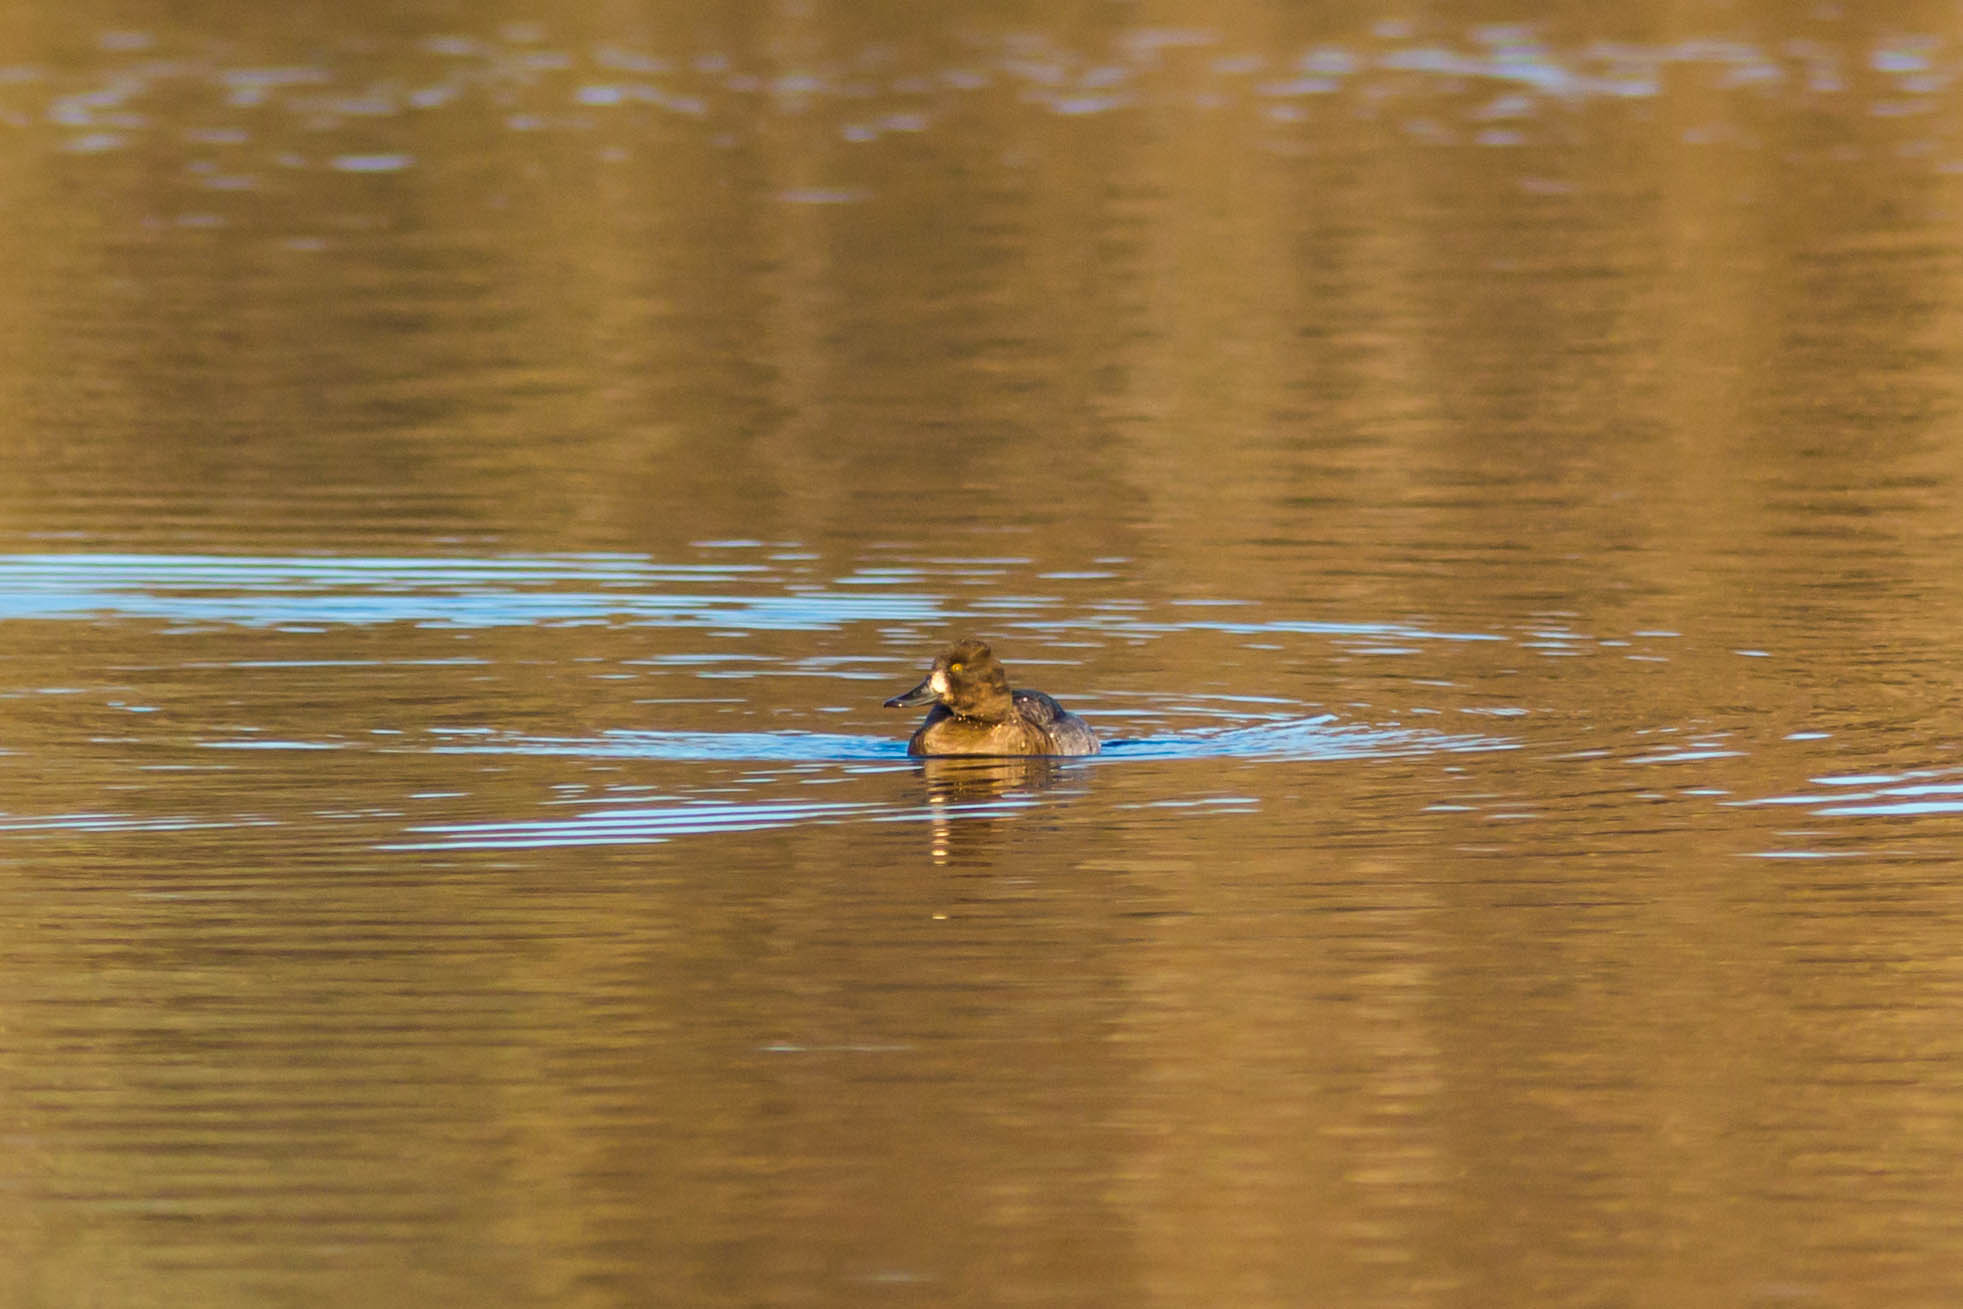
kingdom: Animalia
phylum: Chordata
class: Aves
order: Anseriformes
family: Anatidae
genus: Aythya
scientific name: Aythya affinis
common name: Lesser scaup
